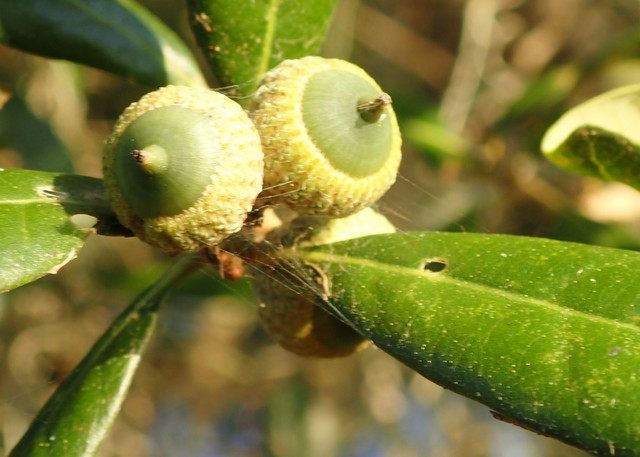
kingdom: Plantae
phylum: Tracheophyta
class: Magnoliopsida
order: Fagales
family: Fagaceae
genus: Quercus
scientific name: Quercus virginiana
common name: Southern live oak
